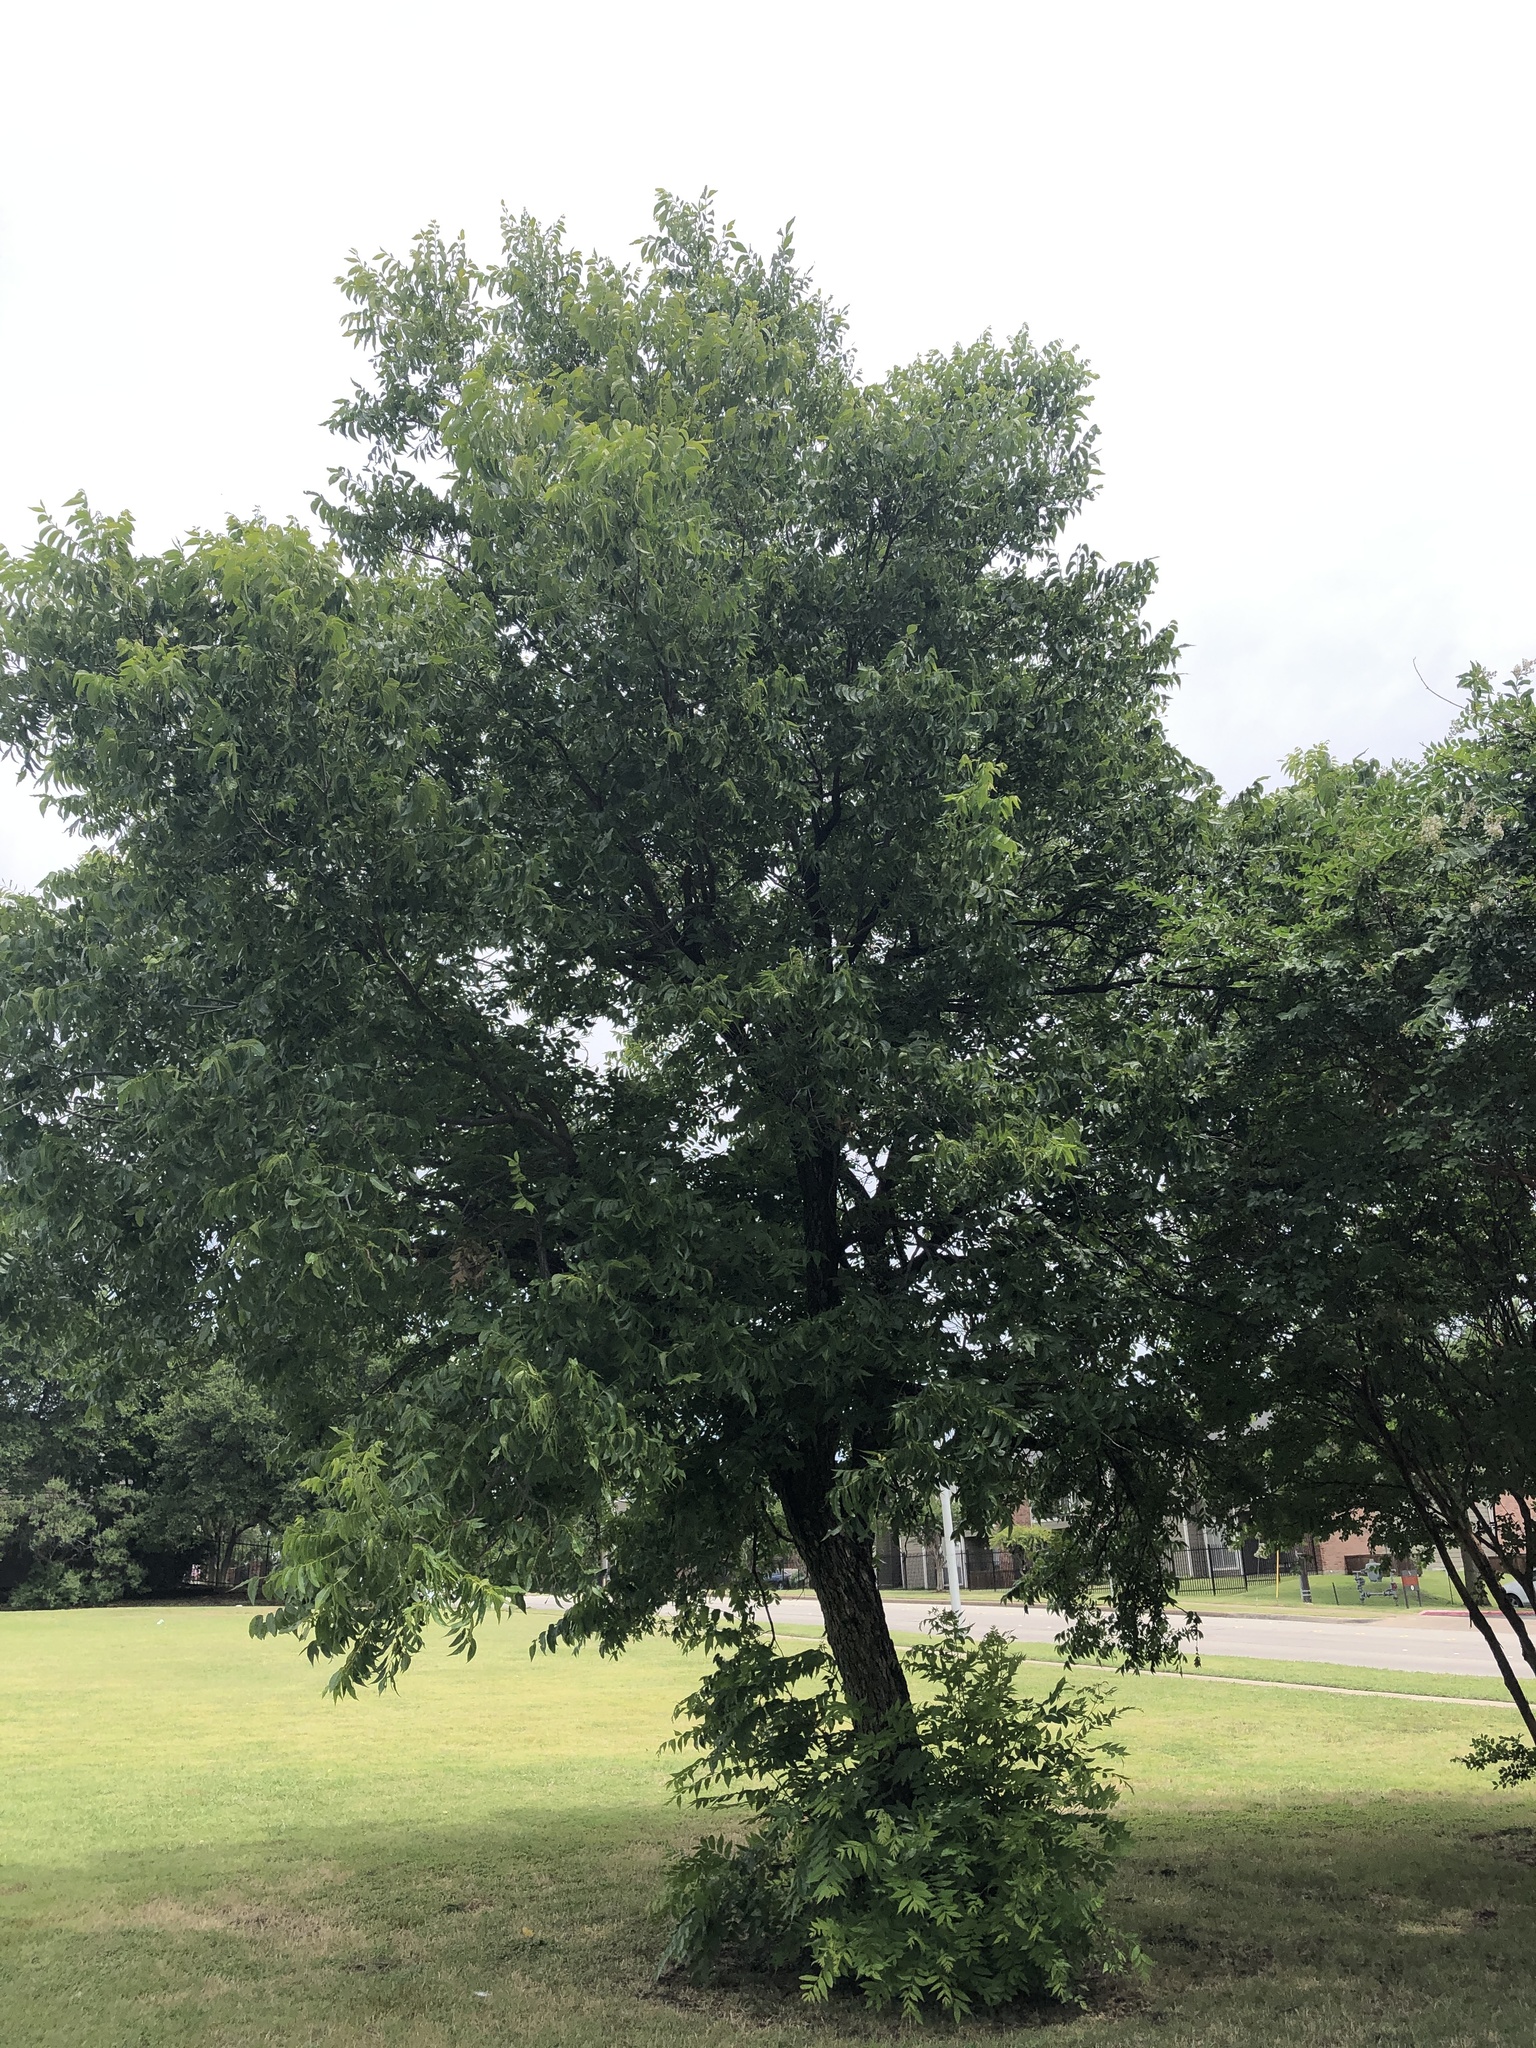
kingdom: Plantae
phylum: Tracheophyta
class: Magnoliopsida
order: Fagales
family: Juglandaceae
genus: Carya
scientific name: Carya illinoinensis
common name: Pecan
